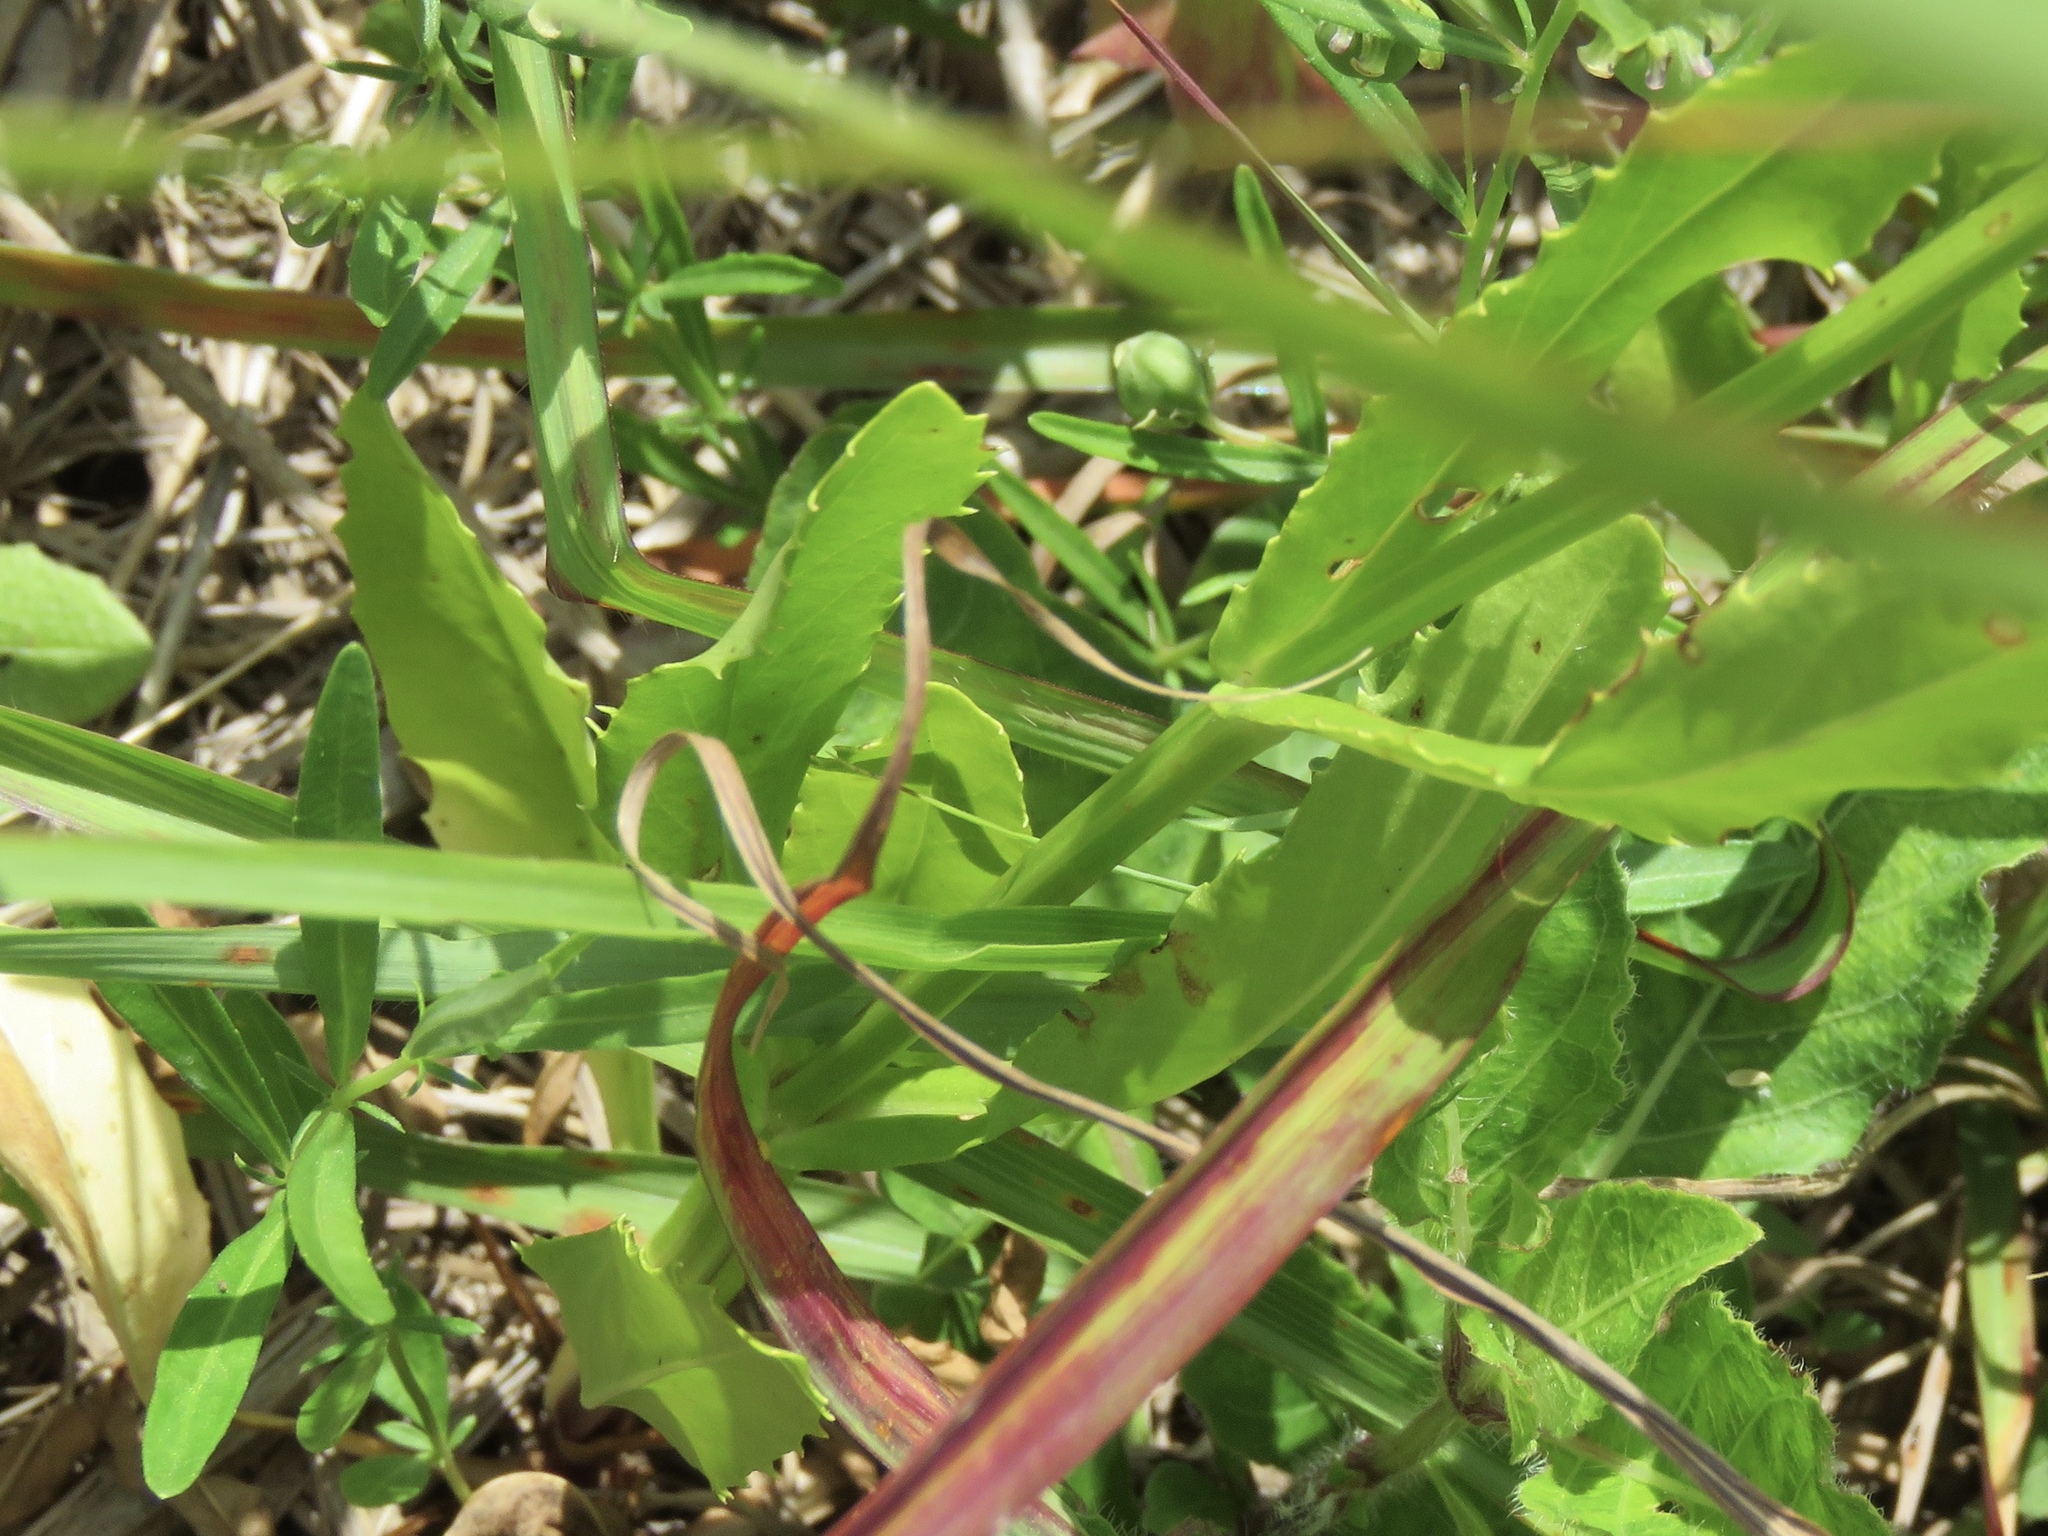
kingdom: Plantae
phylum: Tracheophyta
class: Magnoliopsida
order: Lamiales
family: Lamiaceae
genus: Physostegia
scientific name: Physostegia virginiana
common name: Obedient-plant
